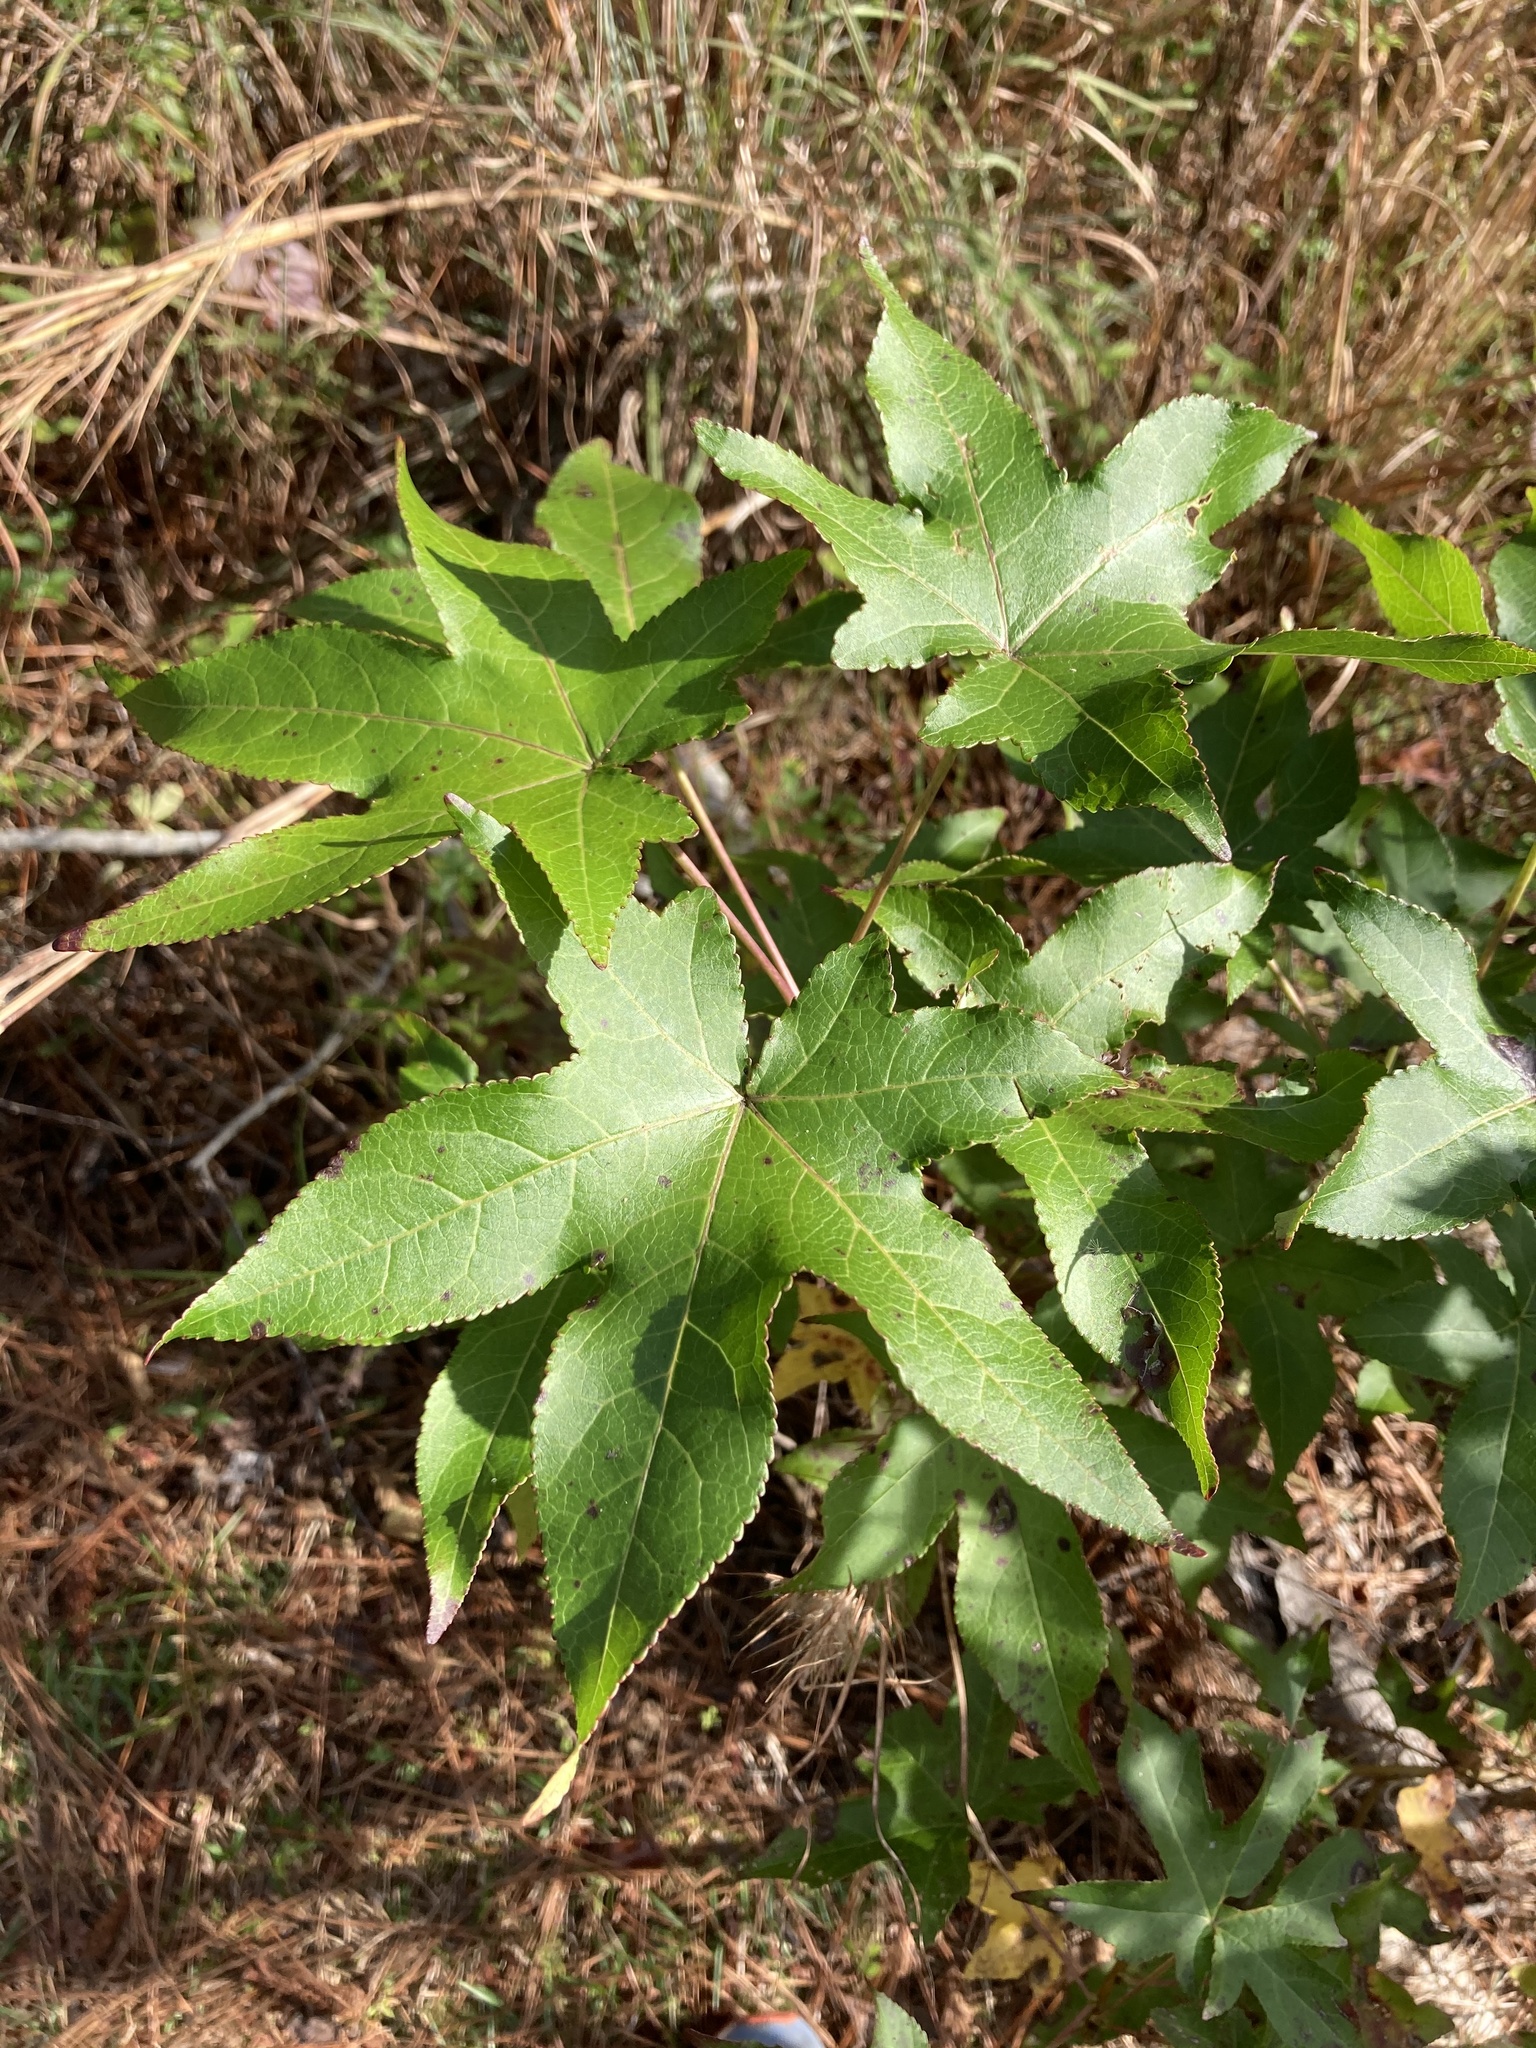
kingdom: Plantae
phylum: Tracheophyta
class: Magnoliopsida
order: Saxifragales
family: Altingiaceae
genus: Liquidambar
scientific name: Liquidambar styraciflua
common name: Sweet gum
